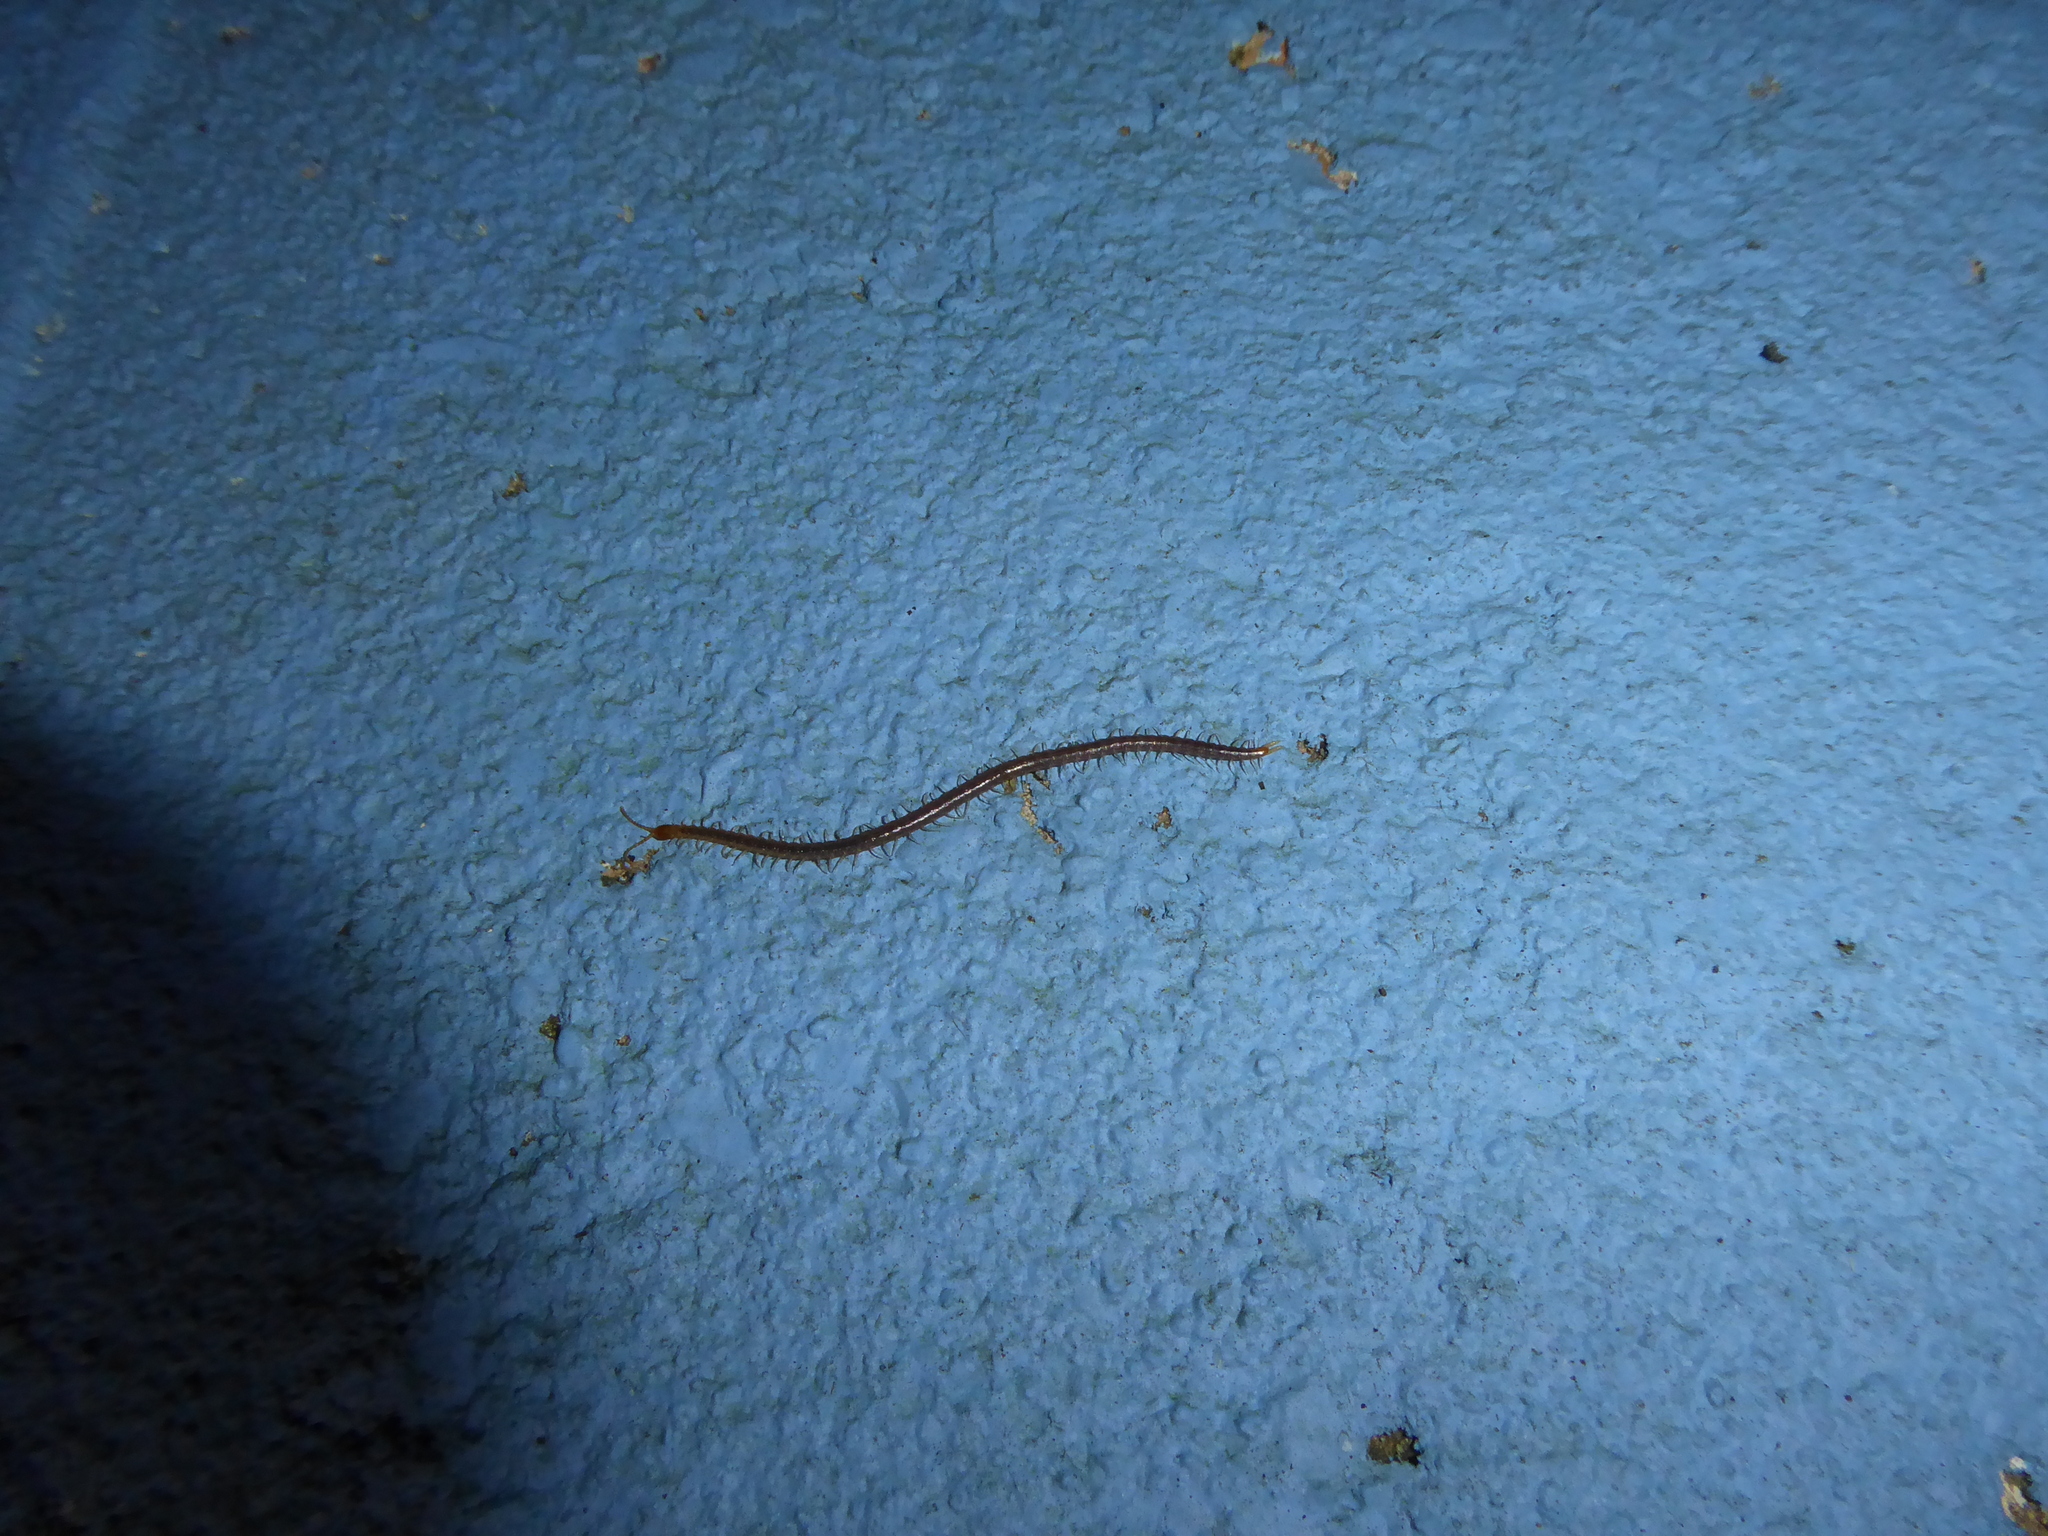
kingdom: Animalia
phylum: Arthropoda
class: Chilopoda
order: Geophilomorpha
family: Geophilidae
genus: Geophilus
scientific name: Geophilus carpophagus
